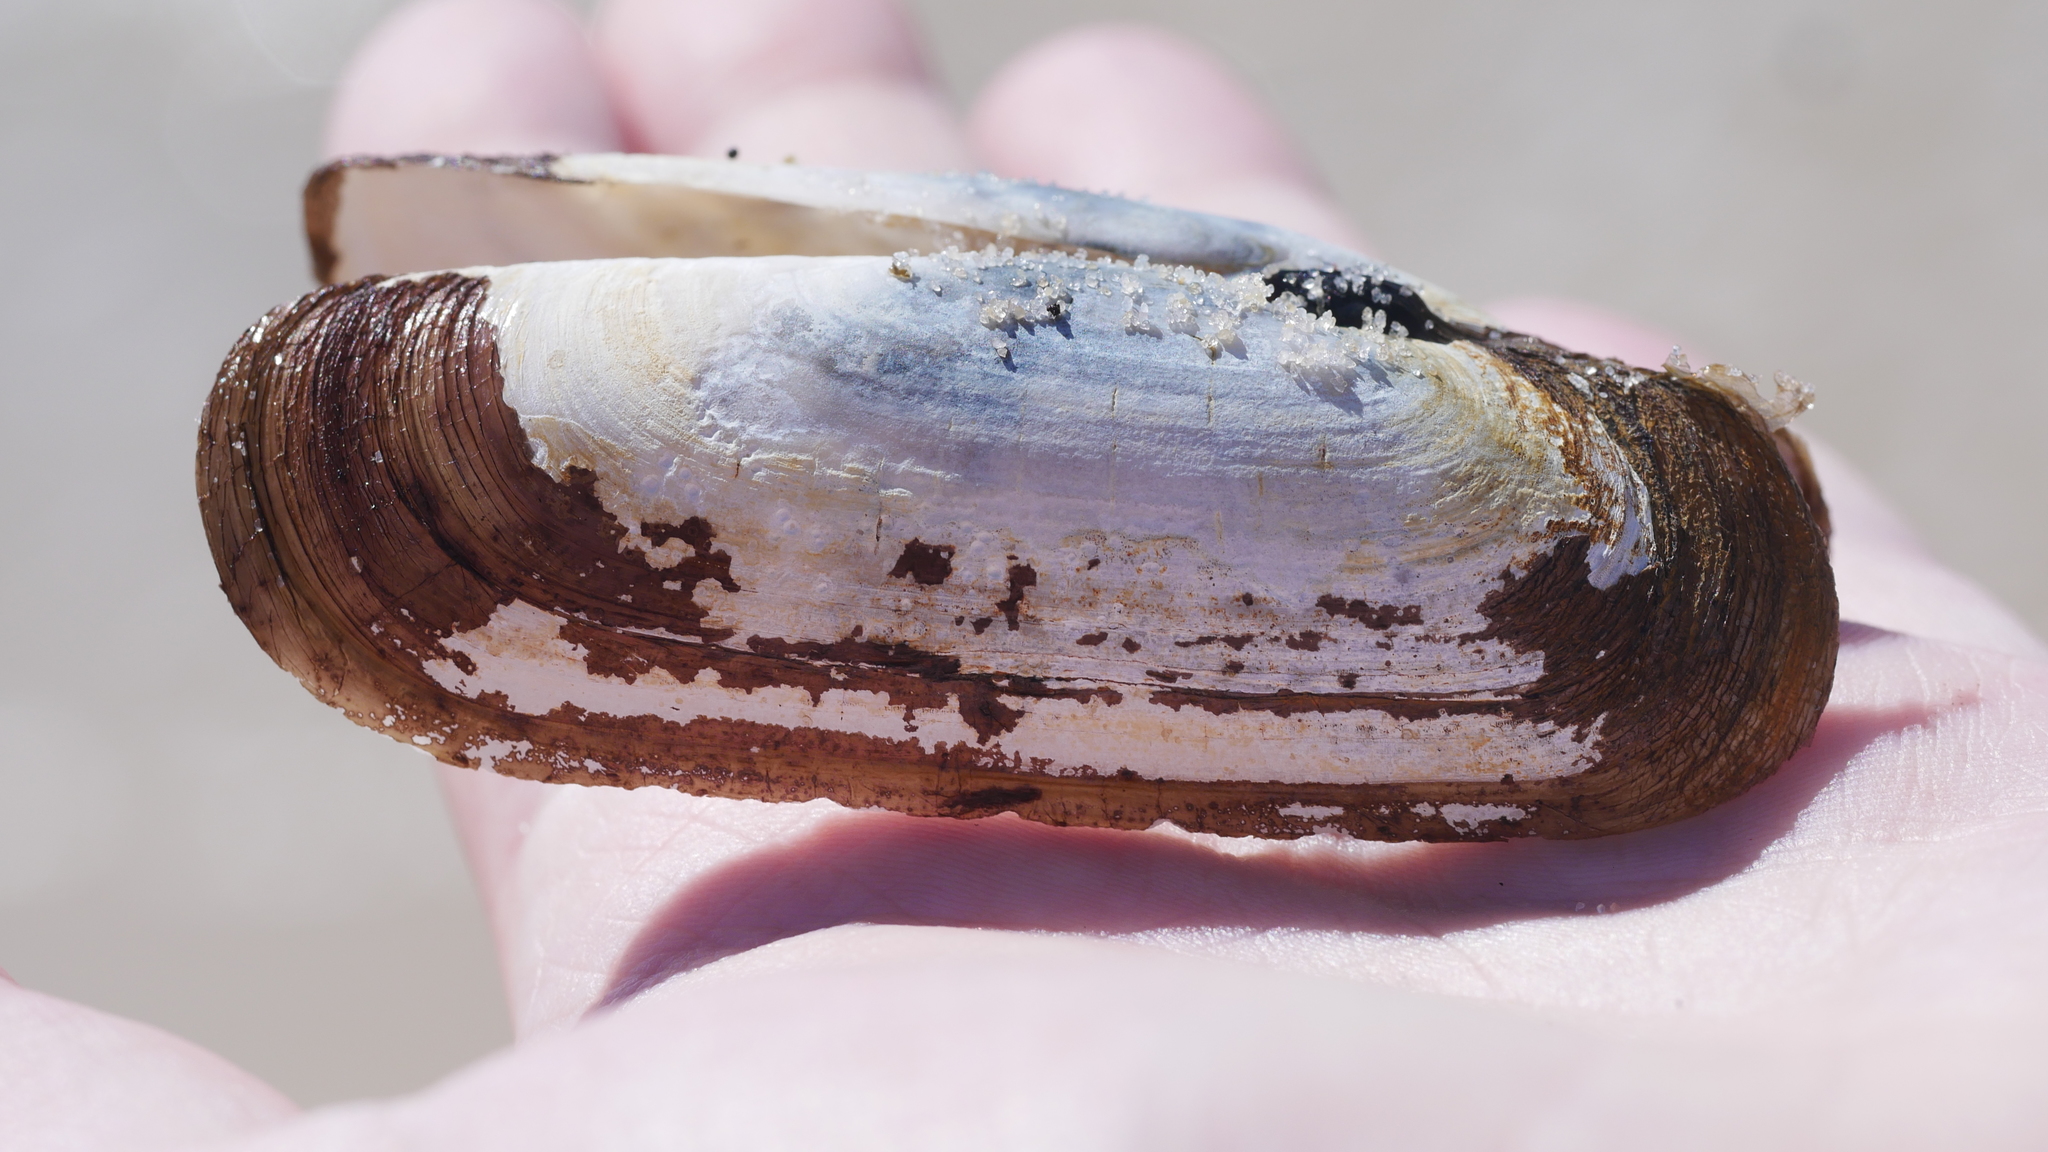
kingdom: Animalia
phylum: Mollusca
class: Bivalvia
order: Cardiida
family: Solecurtidae
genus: Tagelus
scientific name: Tagelus plebeius
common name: Stout tagelus
